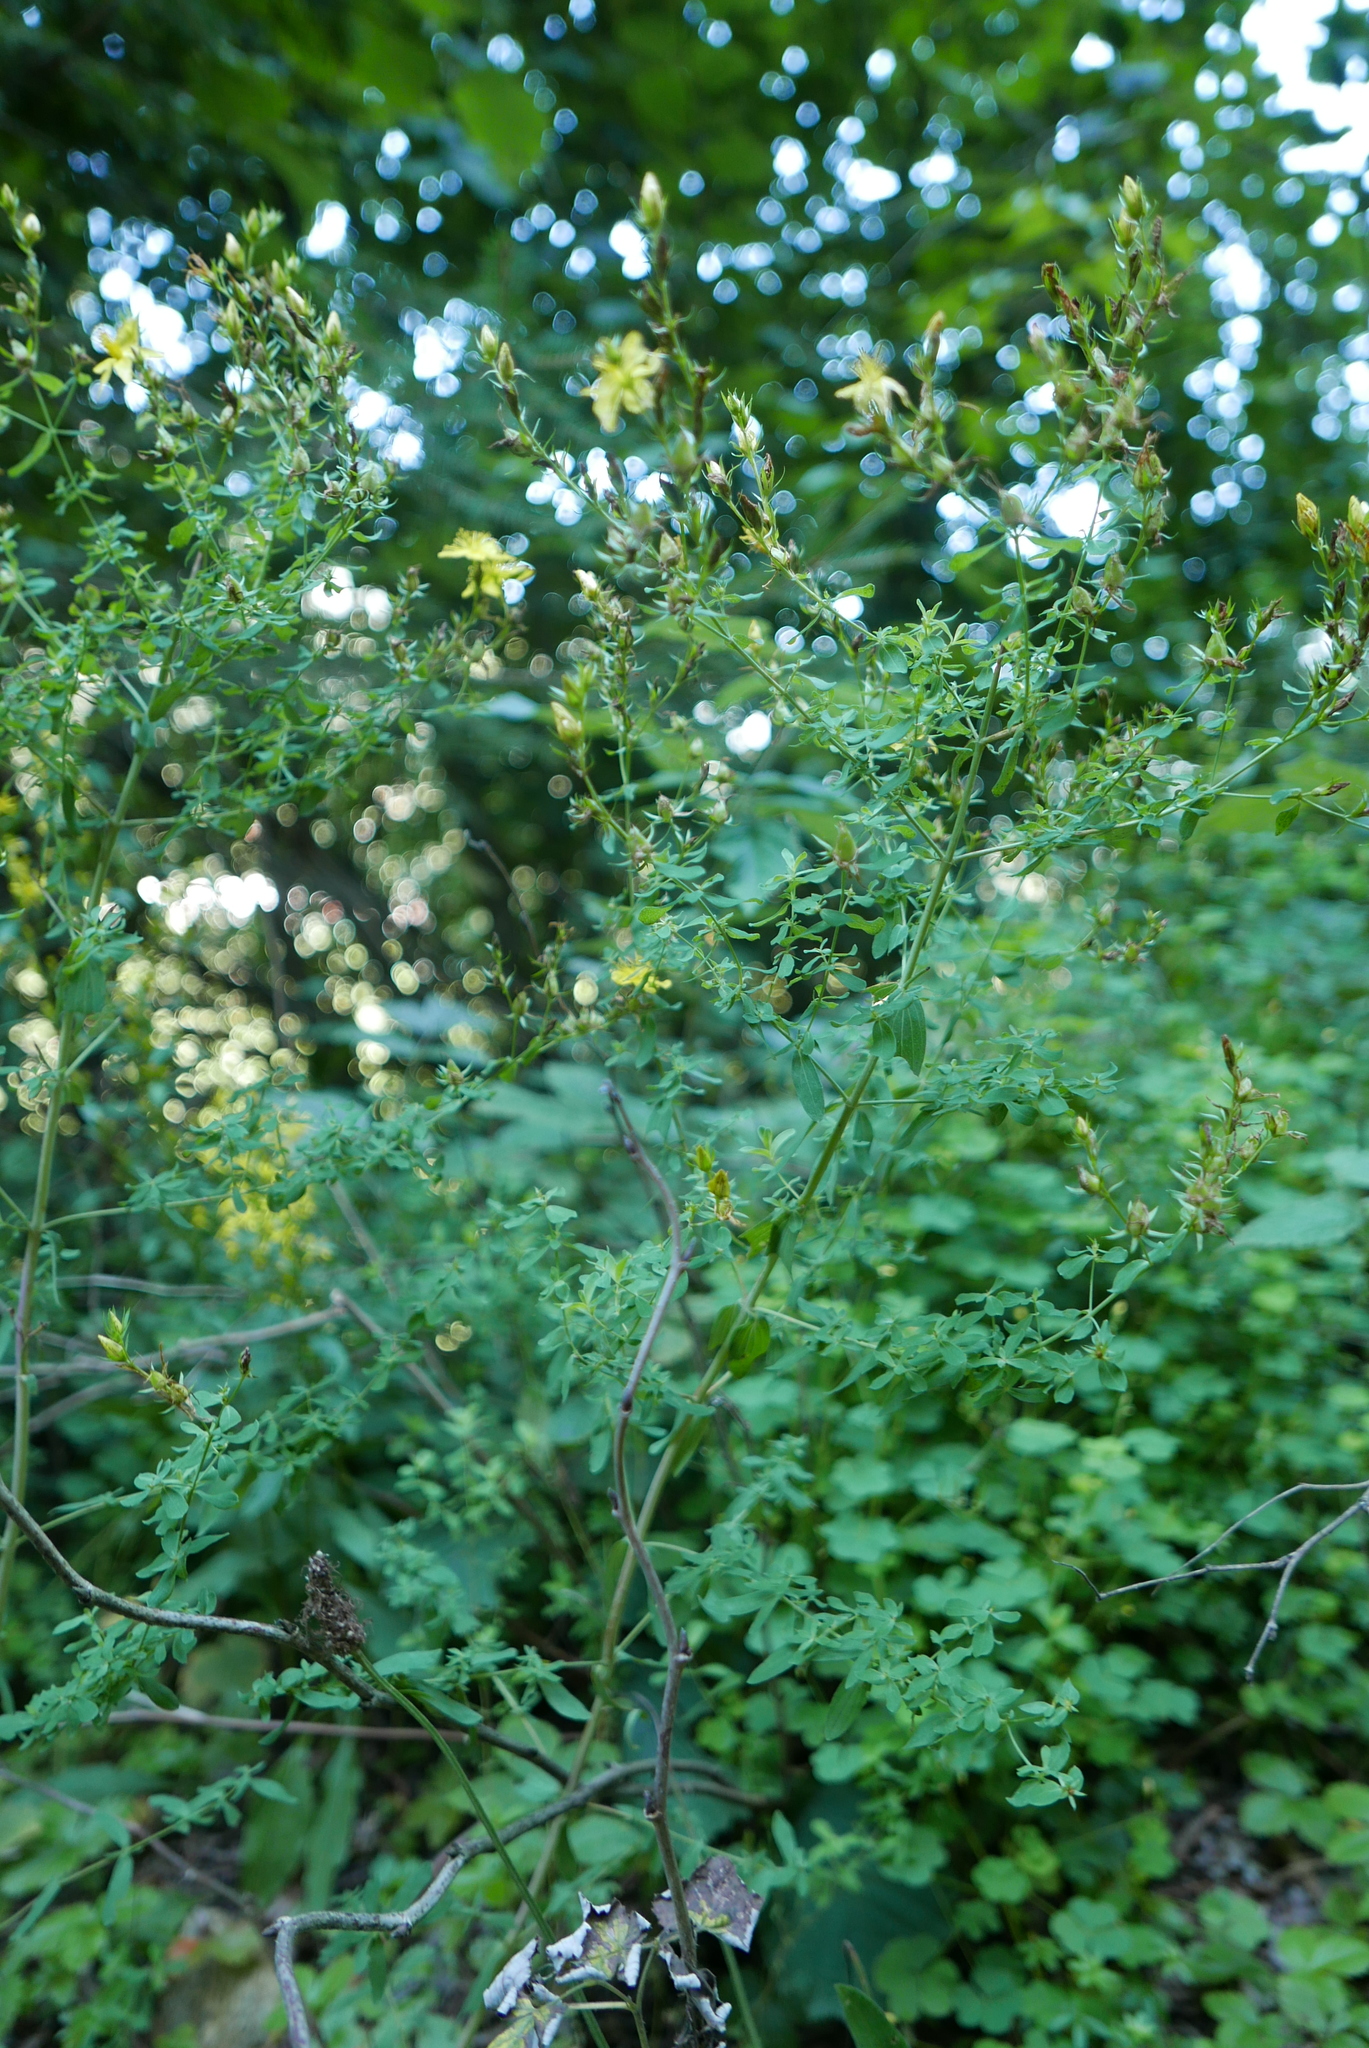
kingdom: Plantae
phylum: Tracheophyta
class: Magnoliopsida
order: Malpighiales
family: Hypericaceae
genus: Hypericum
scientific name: Hypericum perforatum
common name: Common st. johnswort
